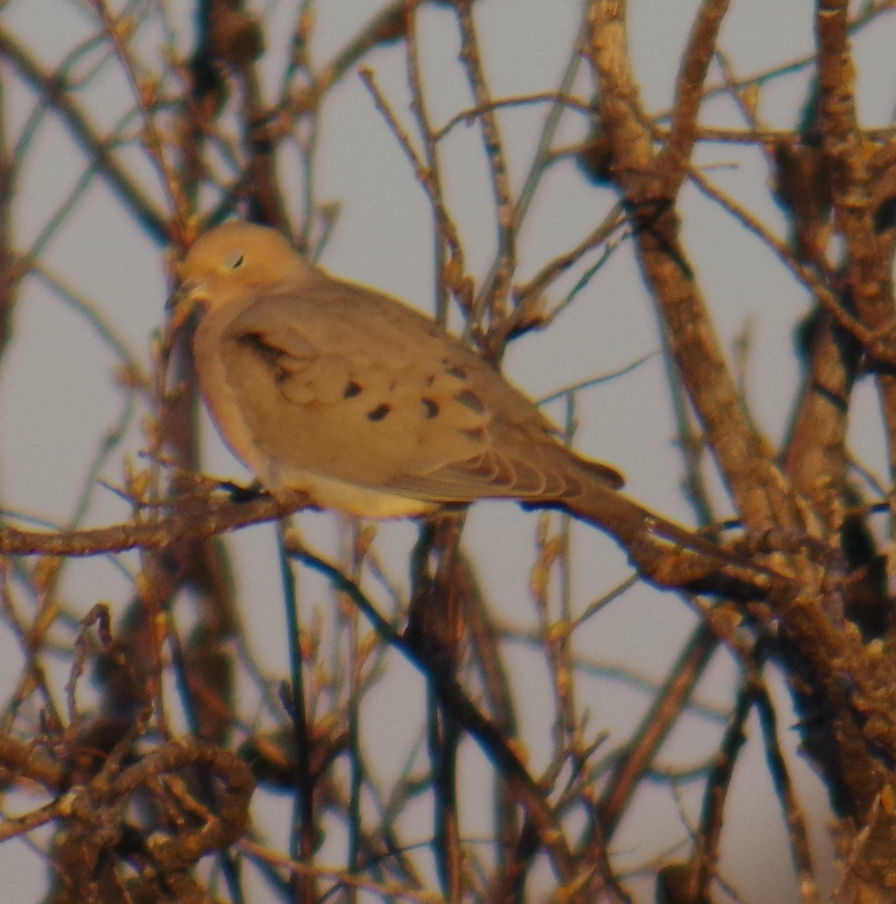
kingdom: Animalia
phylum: Chordata
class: Aves
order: Columbiformes
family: Columbidae
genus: Zenaida
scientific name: Zenaida macroura
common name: Mourning dove
